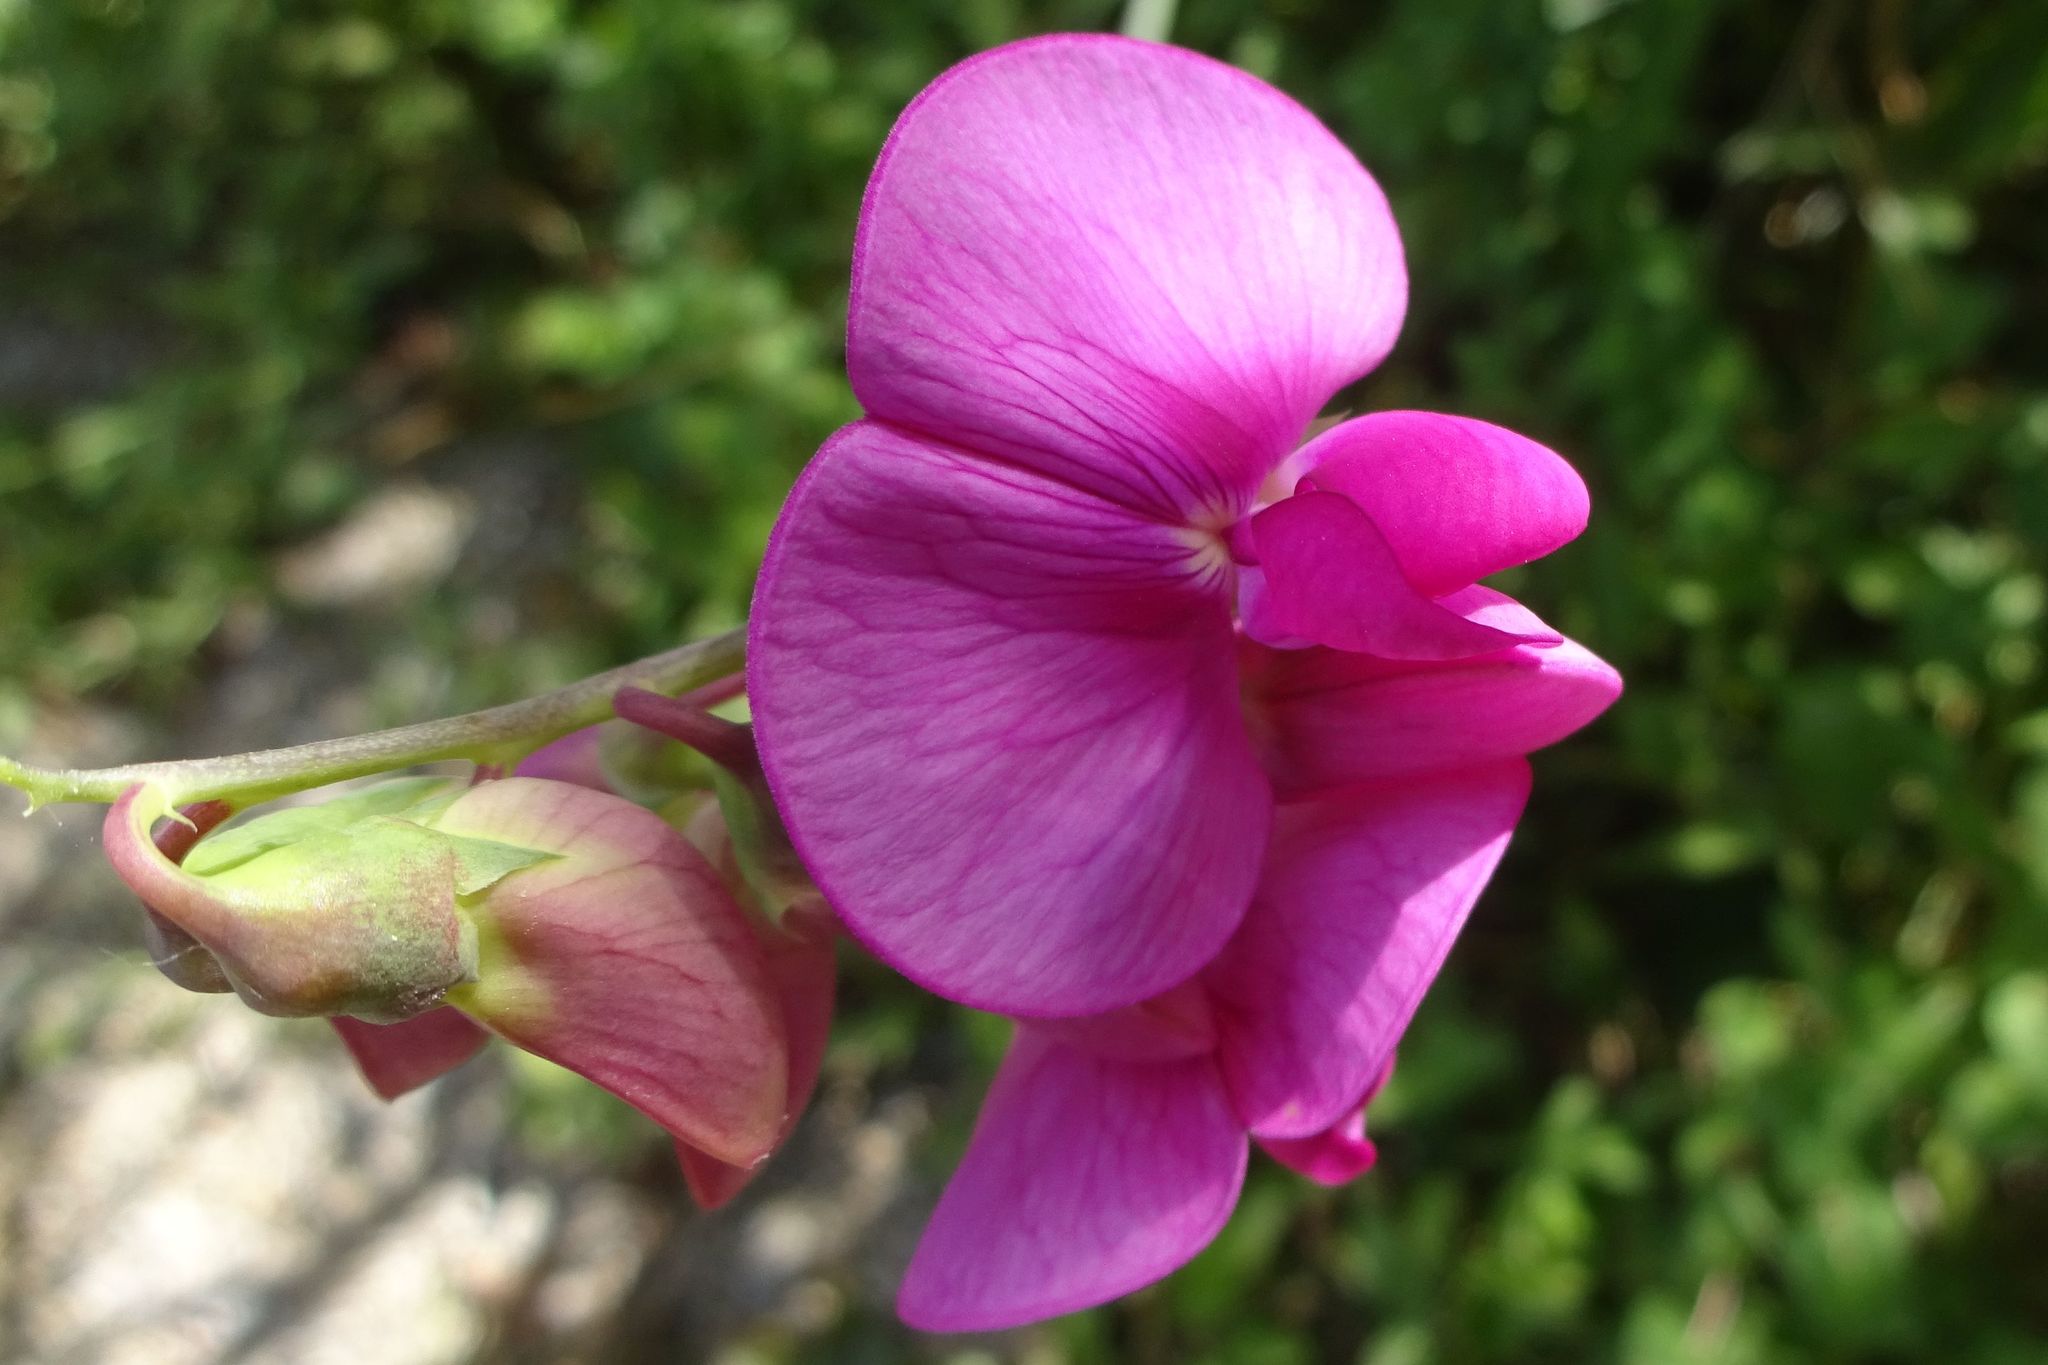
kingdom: Plantae
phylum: Tracheophyta
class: Magnoliopsida
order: Fabales
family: Fabaceae
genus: Lathyrus
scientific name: Lathyrus latifolius
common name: Perennial pea
